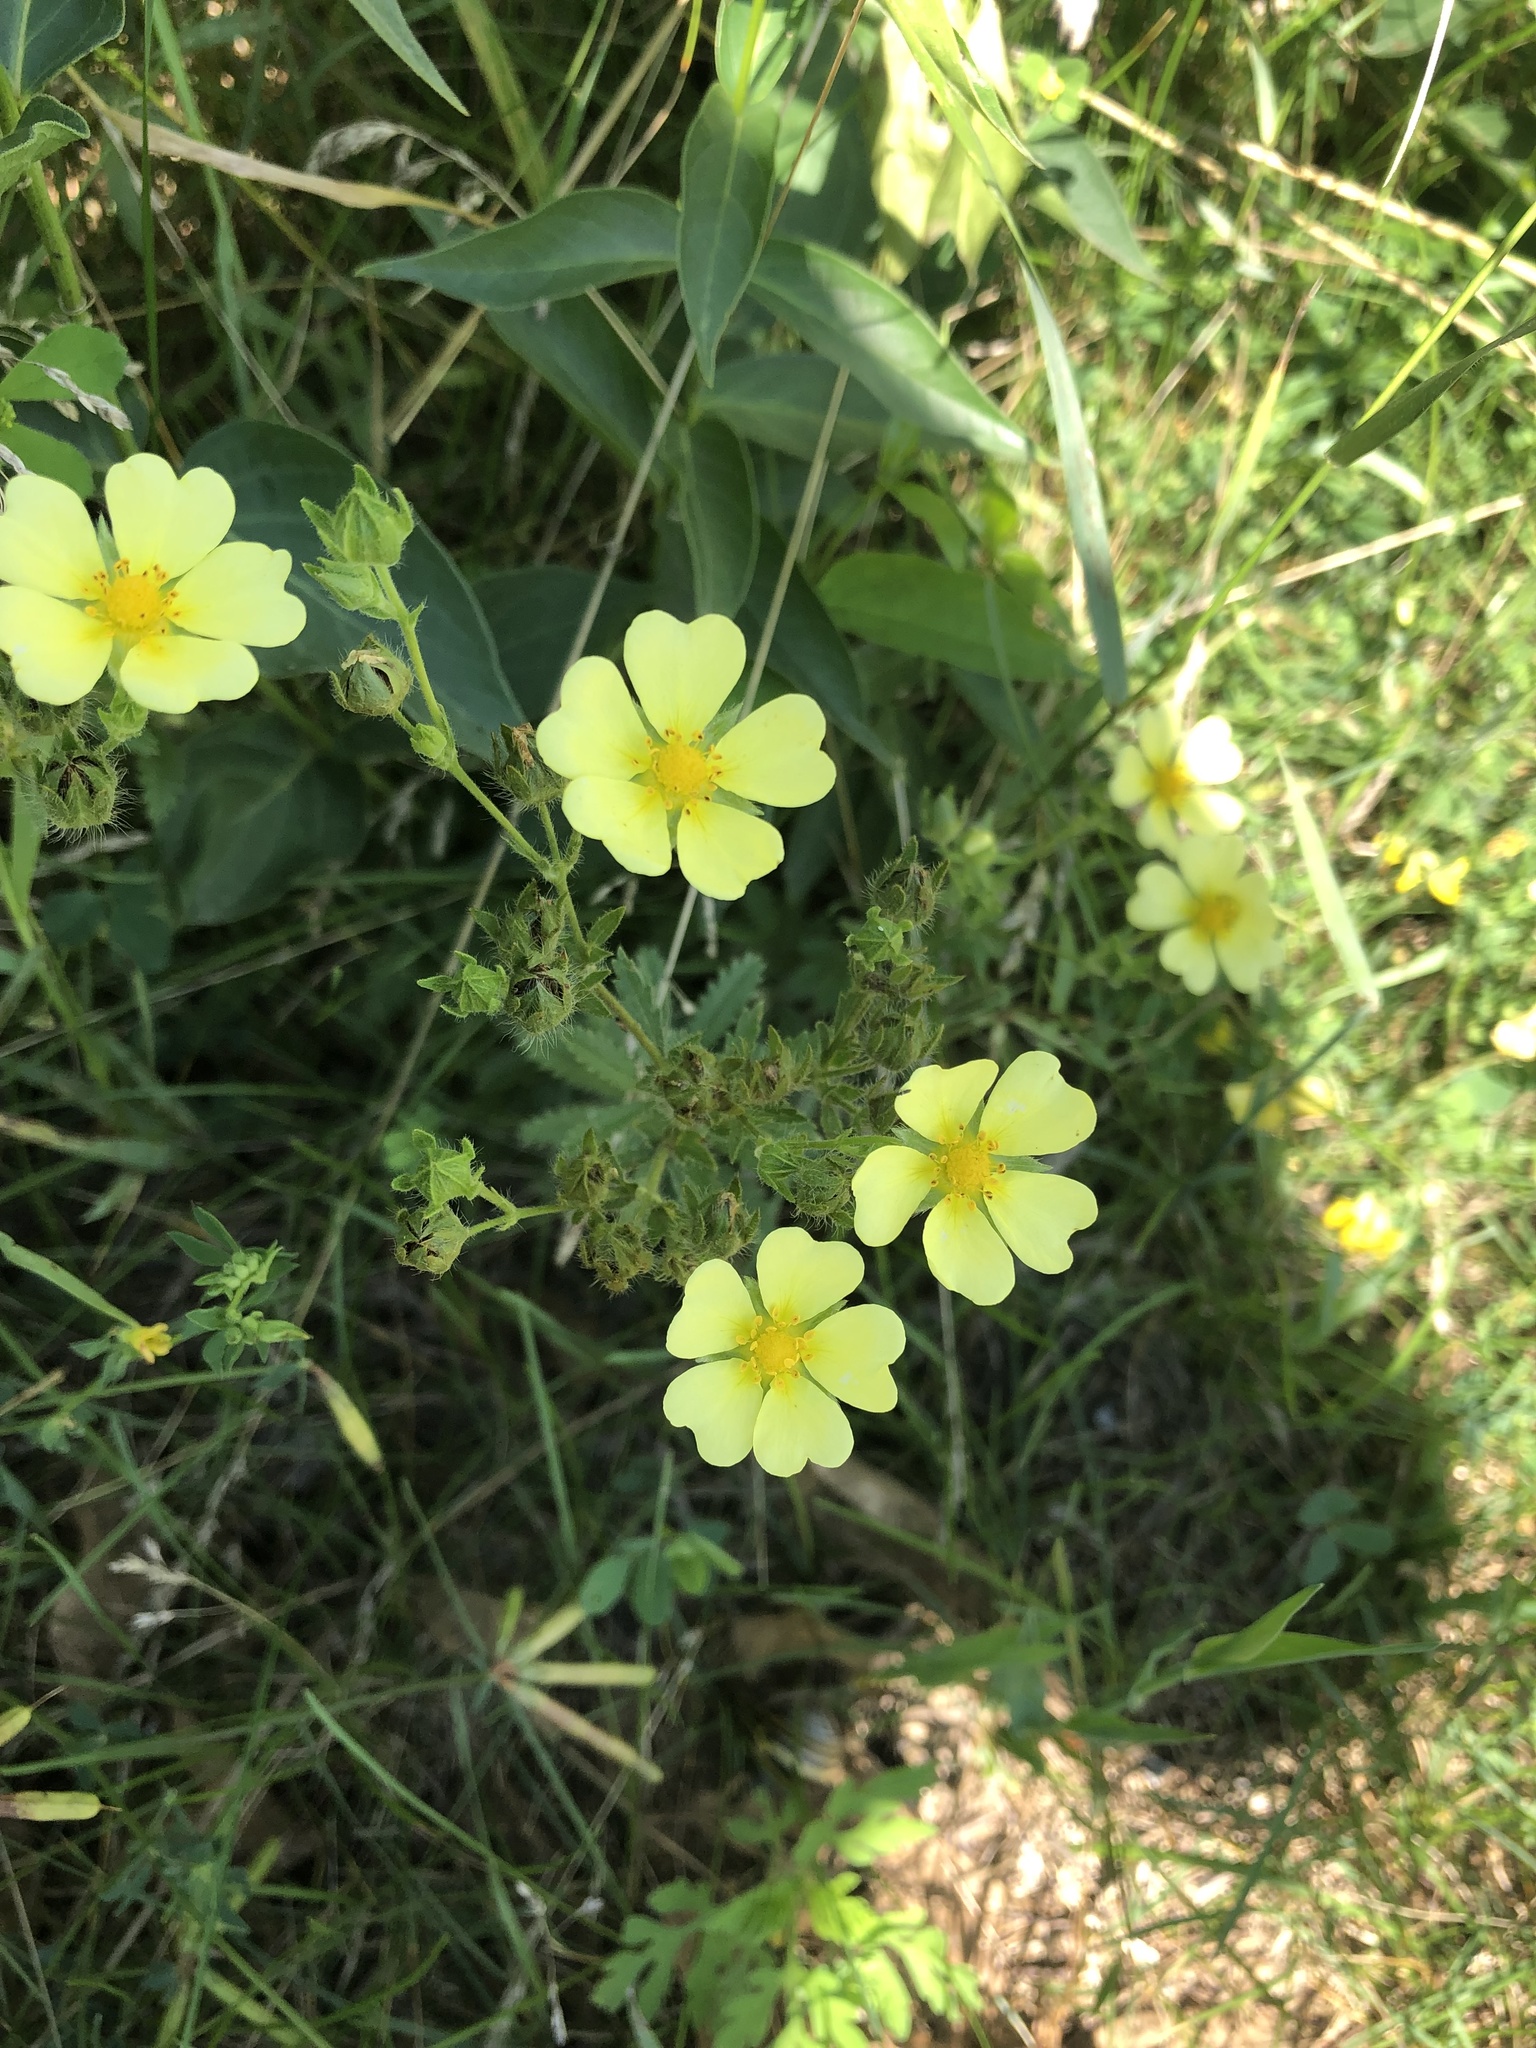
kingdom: Plantae
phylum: Tracheophyta
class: Magnoliopsida
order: Rosales
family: Rosaceae
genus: Potentilla
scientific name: Potentilla recta
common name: Sulphur cinquefoil
